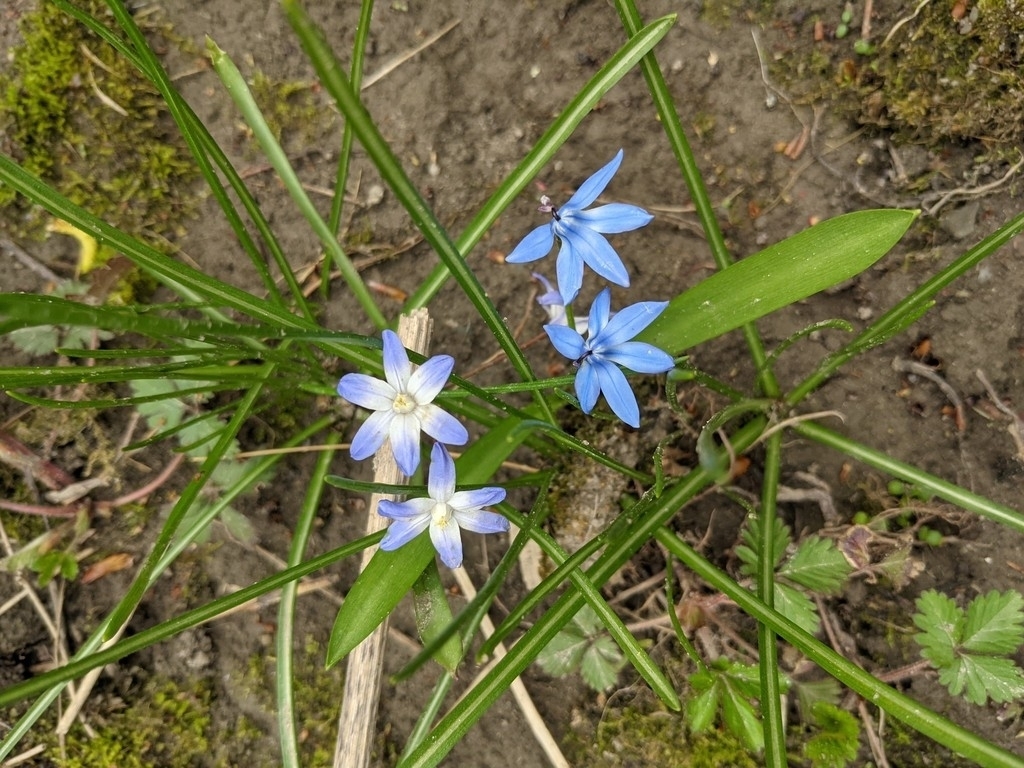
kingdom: Plantae
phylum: Tracheophyta
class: Liliopsida
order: Asparagales
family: Asparagaceae
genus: Scilla
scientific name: Scilla siberica
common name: Siberian squill
